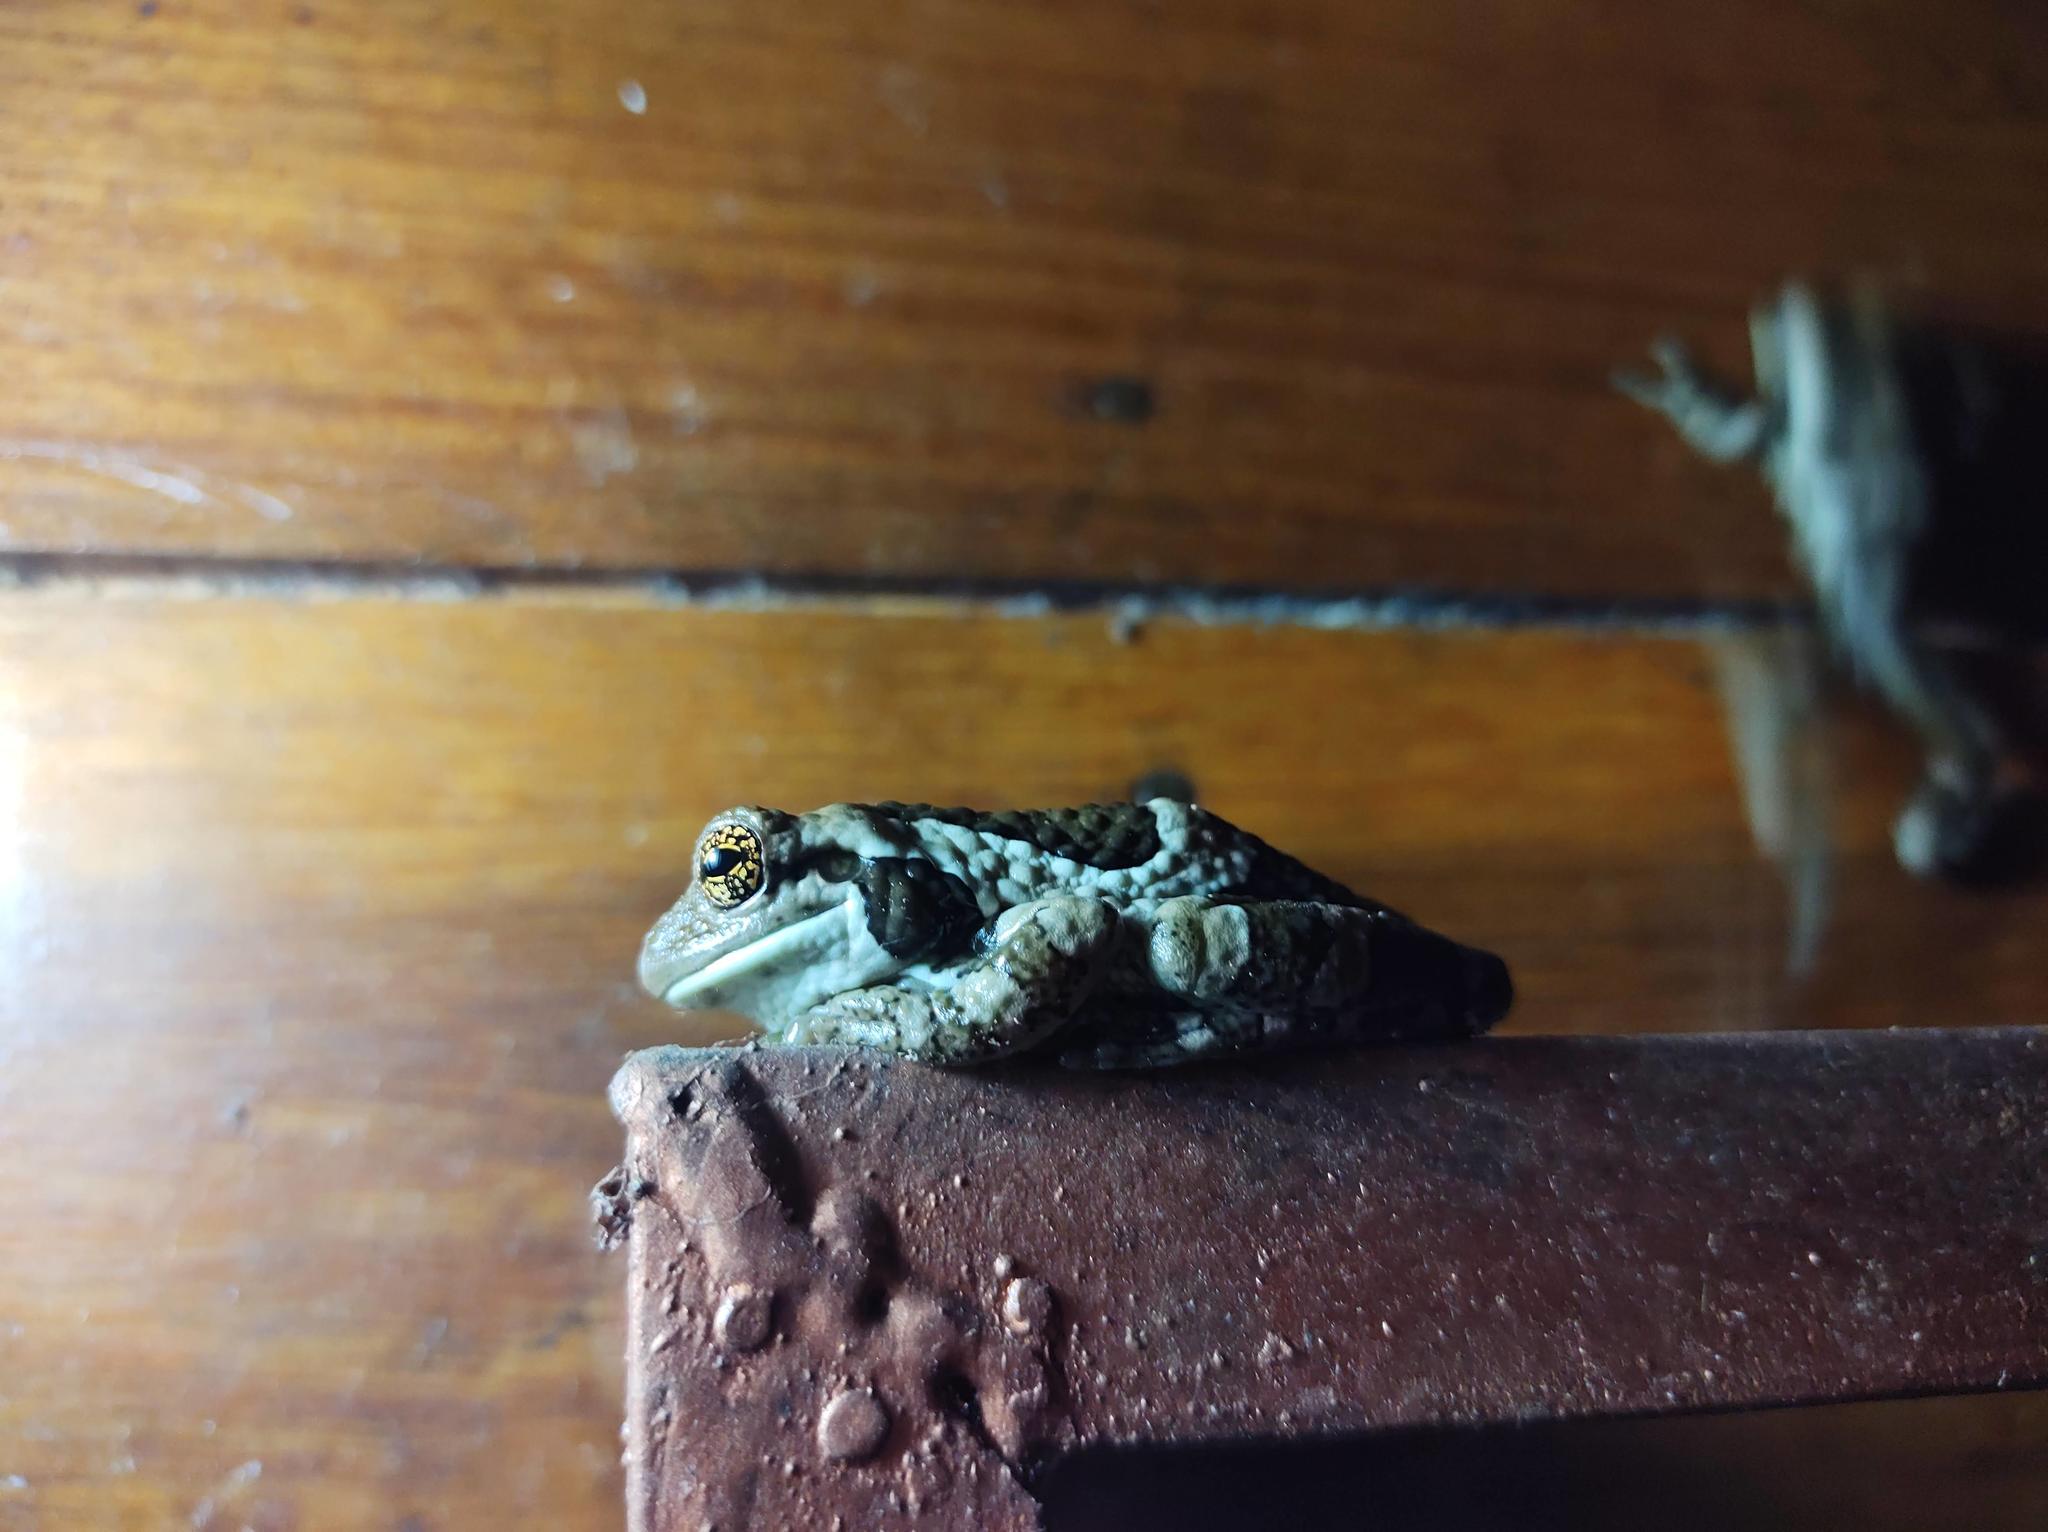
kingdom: Animalia
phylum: Chordata
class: Amphibia
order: Anura
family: Hylidae
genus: Trachycephalus
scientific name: Trachycephalus vermiculatus
